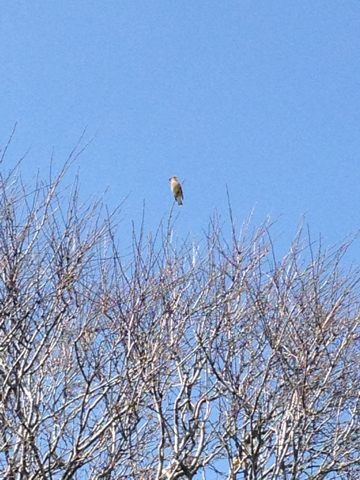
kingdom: Animalia
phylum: Chordata
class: Aves
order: Passeriformes
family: Bombycillidae
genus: Bombycilla
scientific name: Bombycilla cedrorum
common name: Cedar waxwing
